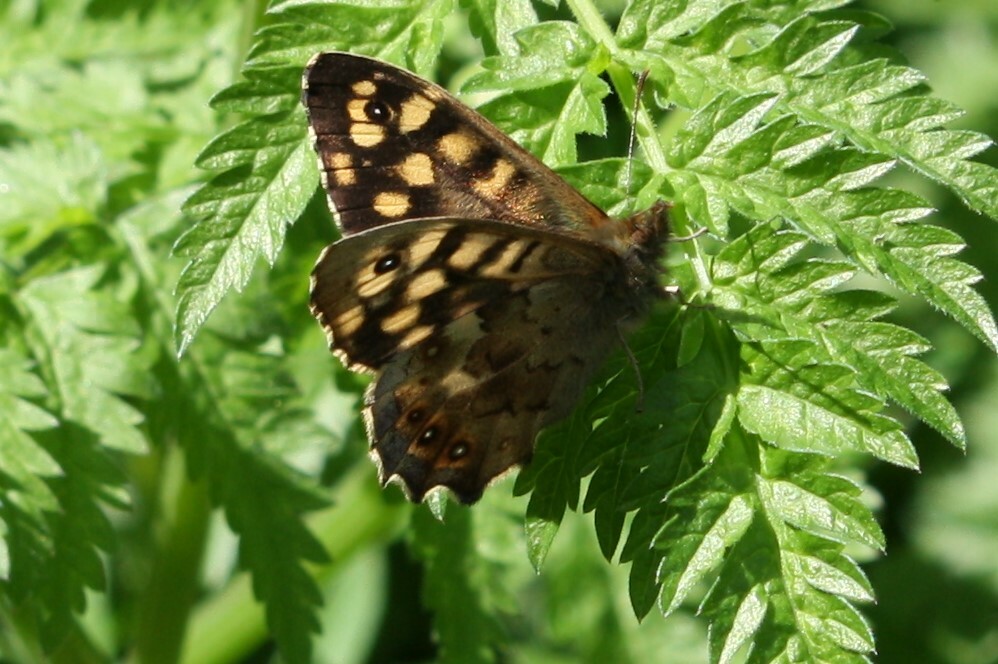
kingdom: Animalia
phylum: Arthropoda
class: Insecta
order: Lepidoptera
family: Nymphalidae
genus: Pararge
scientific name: Pararge aegeria
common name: Speckled wood
